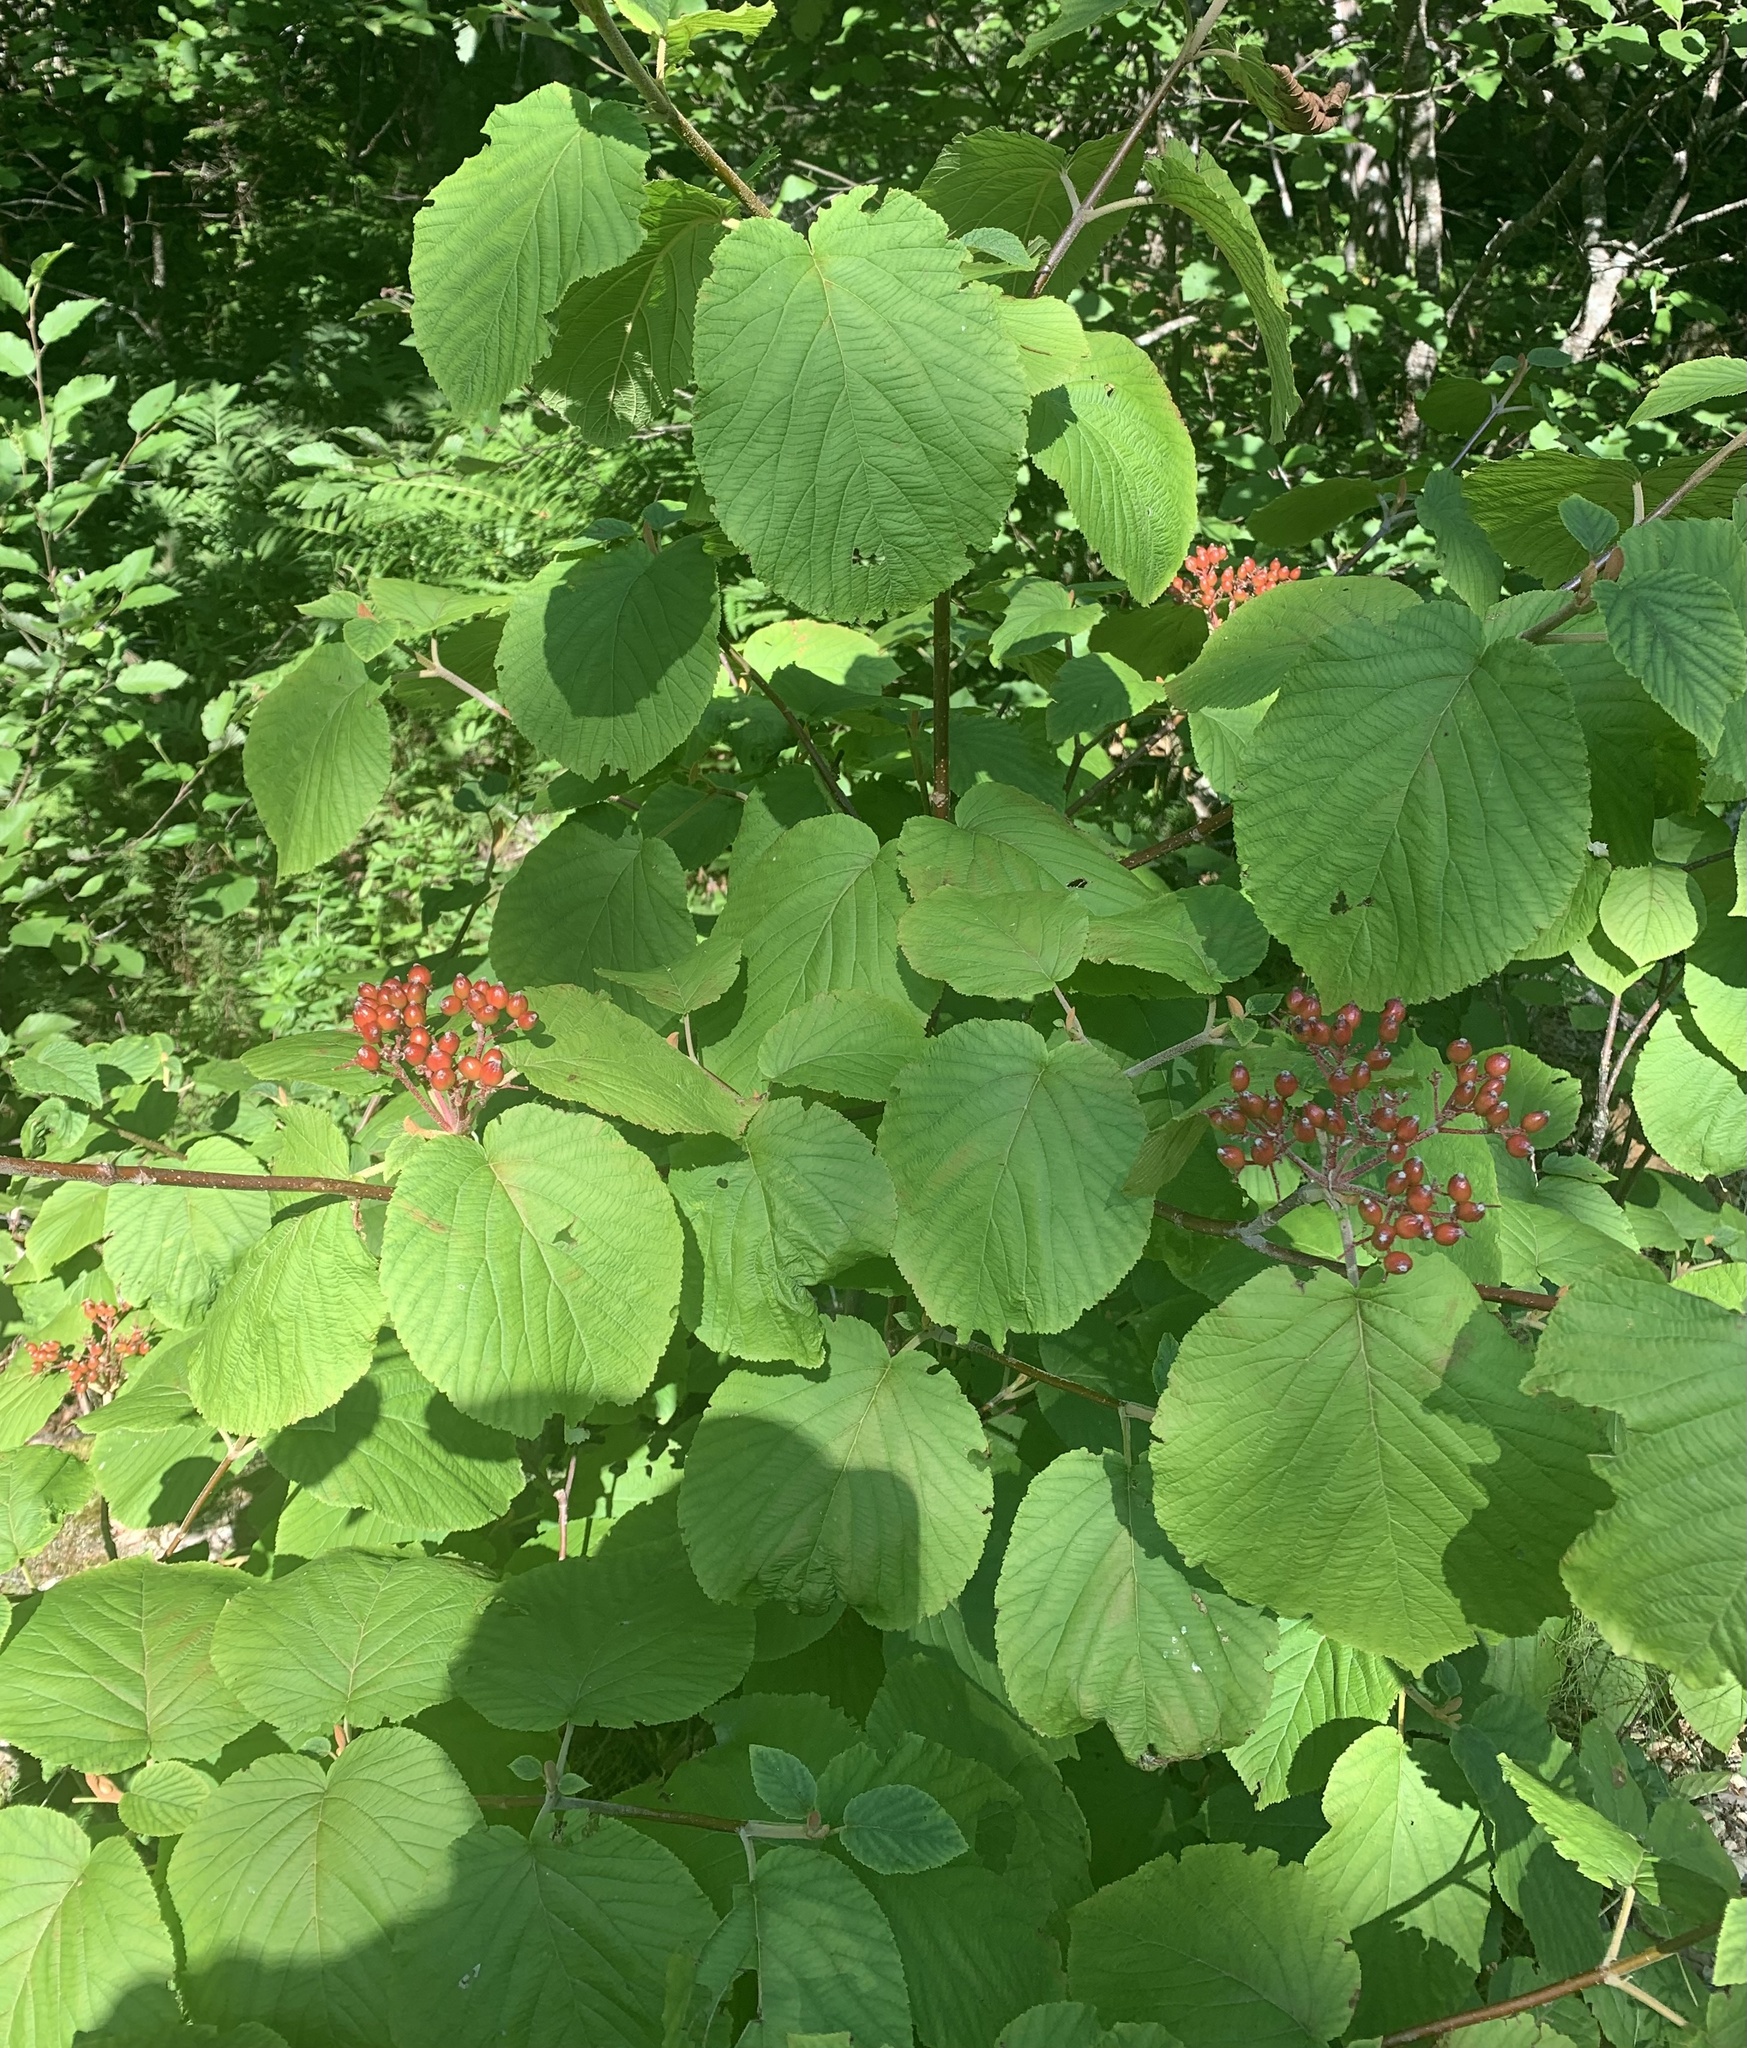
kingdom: Plantae
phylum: Tracheophyta
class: Magnoliopsida
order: Dipsacales
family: Viburnaceae
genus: Viburnum
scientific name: Viburnum lantanoides
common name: Hobblebush
